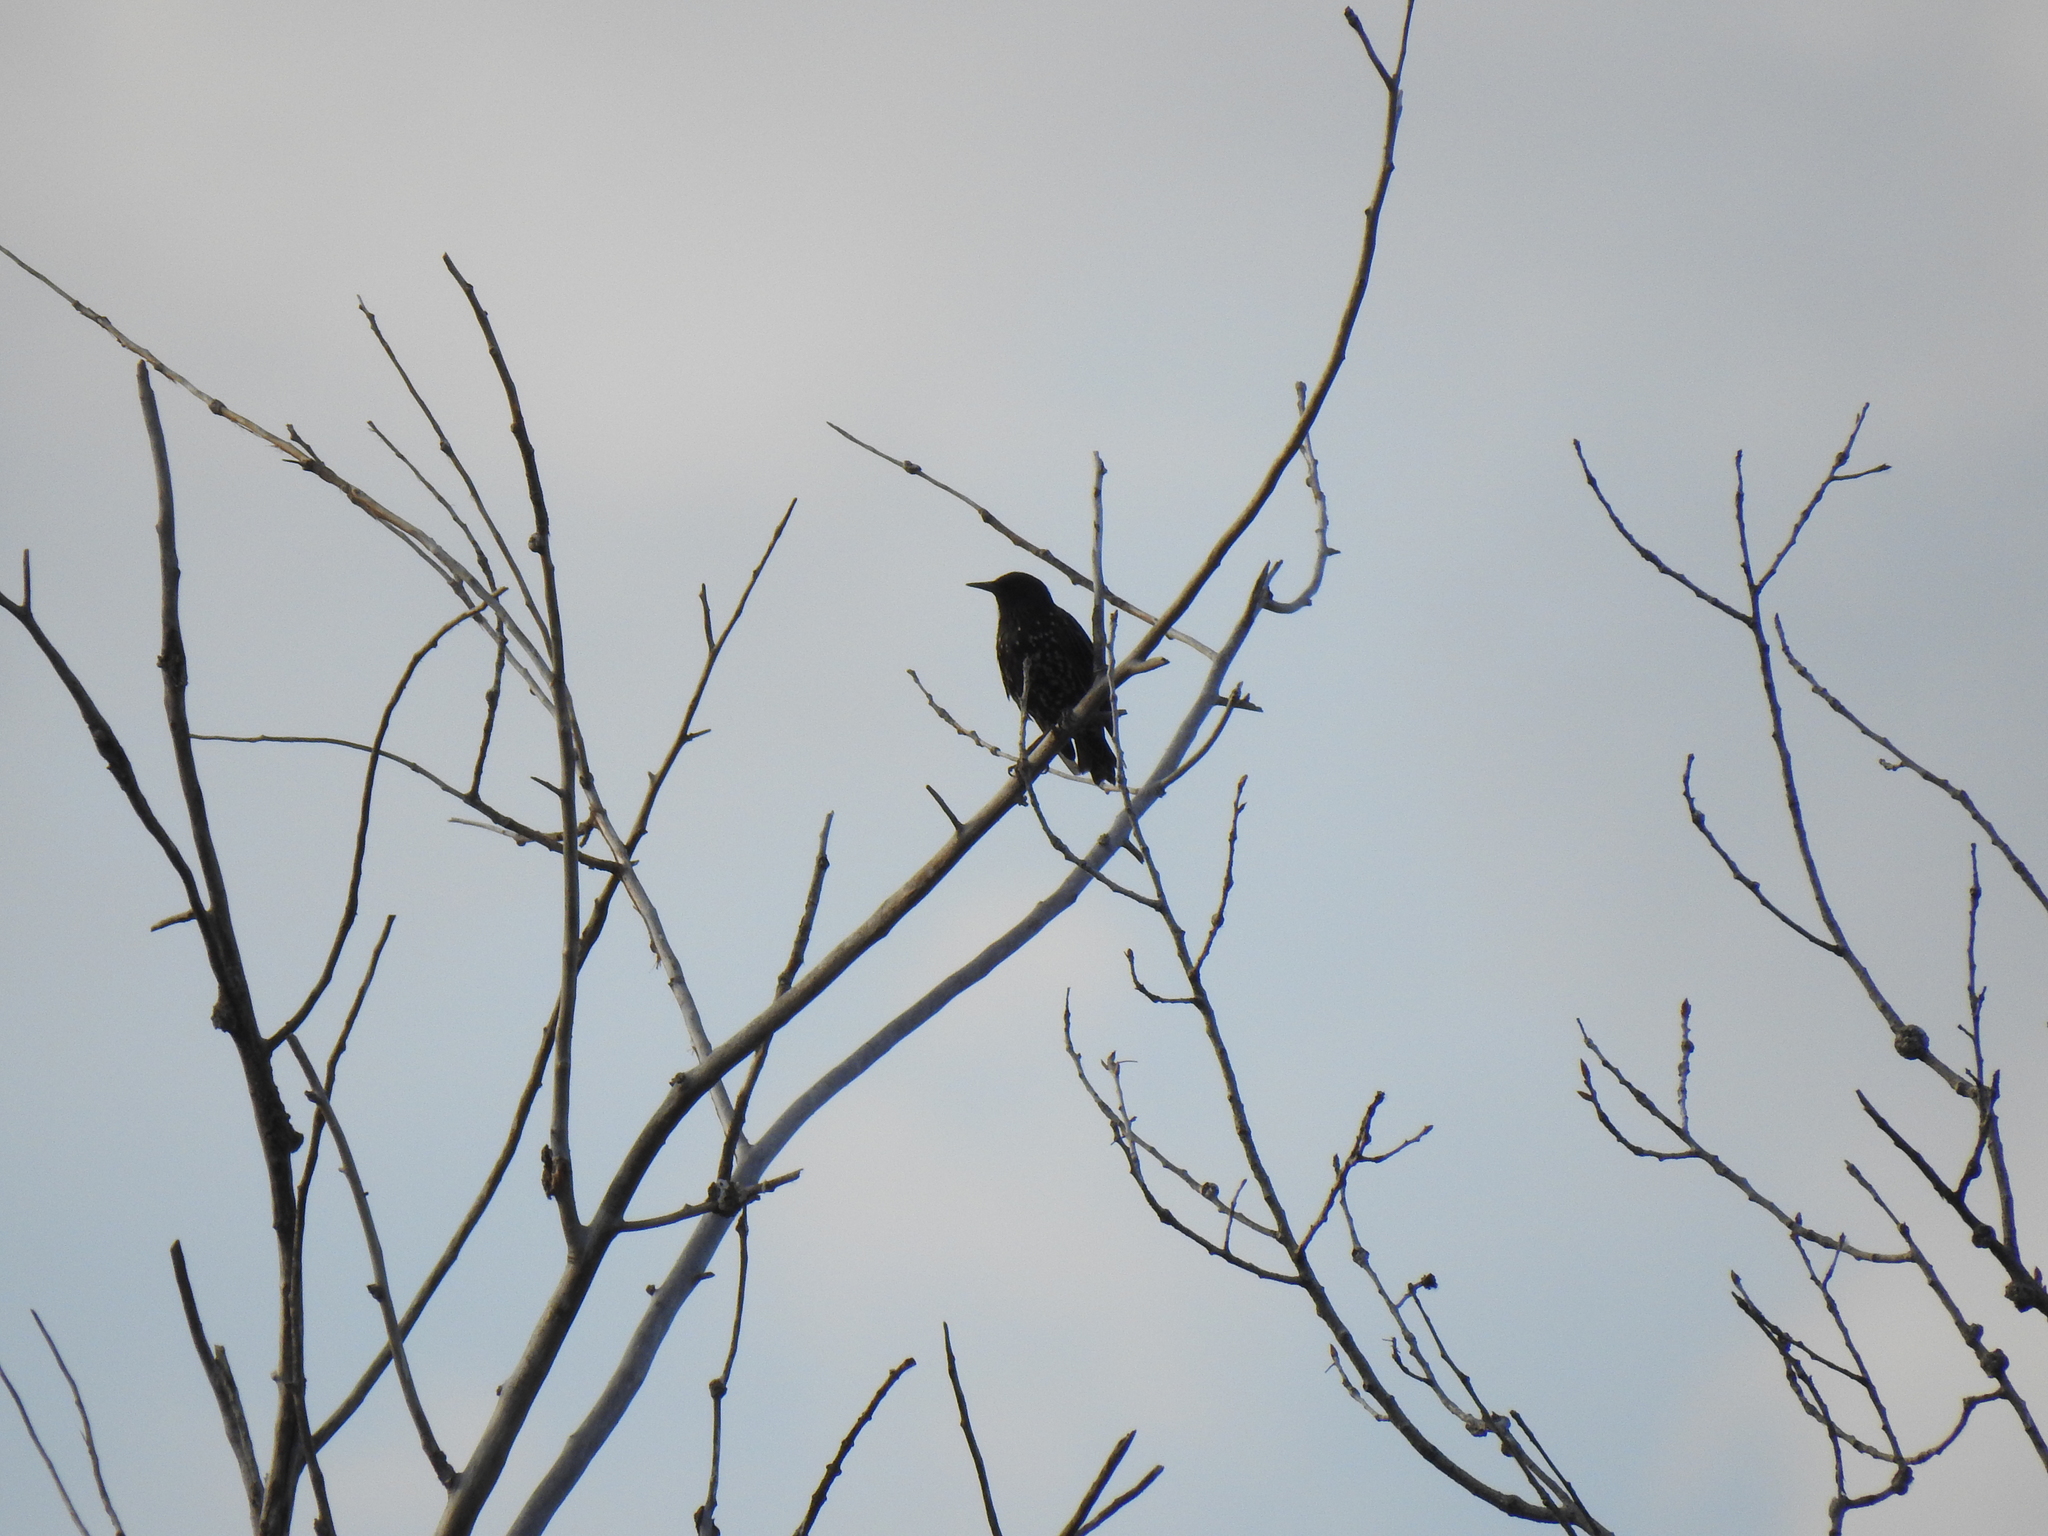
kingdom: Animalia
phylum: Chordata
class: Aves
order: Passeriformes
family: Sturnidae
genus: Sturnus
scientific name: Sturnus vulgaris
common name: Common starling
